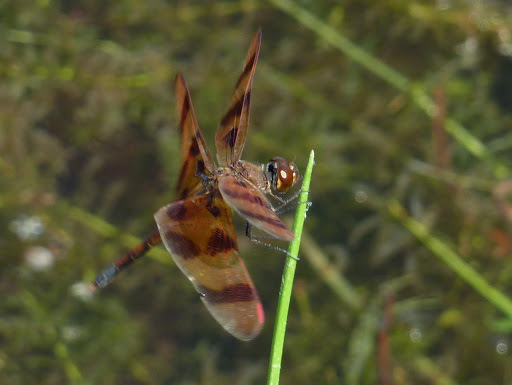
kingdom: Animalia
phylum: Arthropoda
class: Insecta
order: Odonata
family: Libellulidae
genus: Celithemis
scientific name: Celithemis eponina
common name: Halloween pennant
